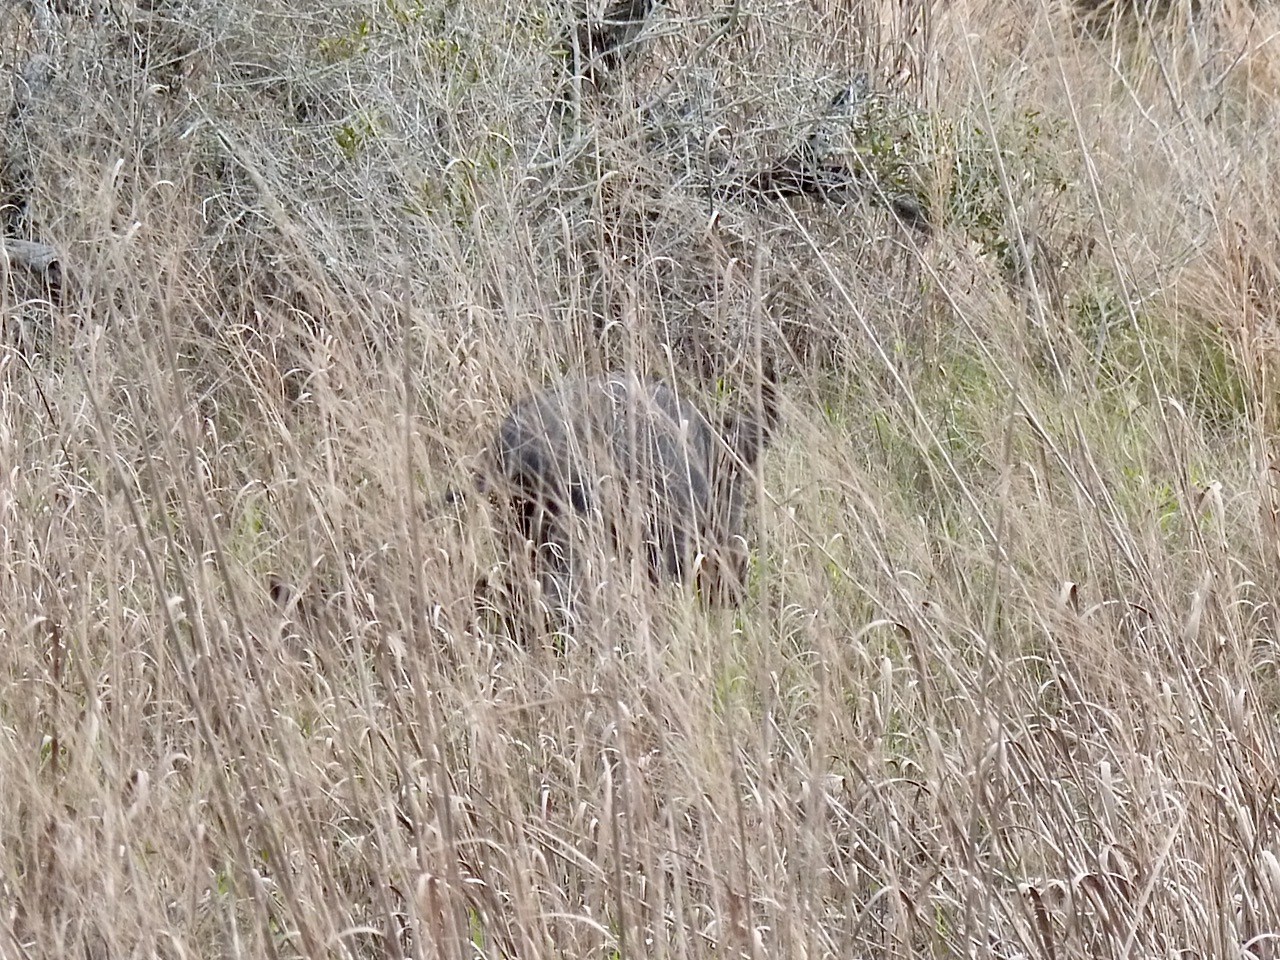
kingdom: Animalia
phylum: Chordata
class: Mammalia
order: Artiodactyla
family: Suidae
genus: Sus
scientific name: Sus scrofa
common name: Wild boar
